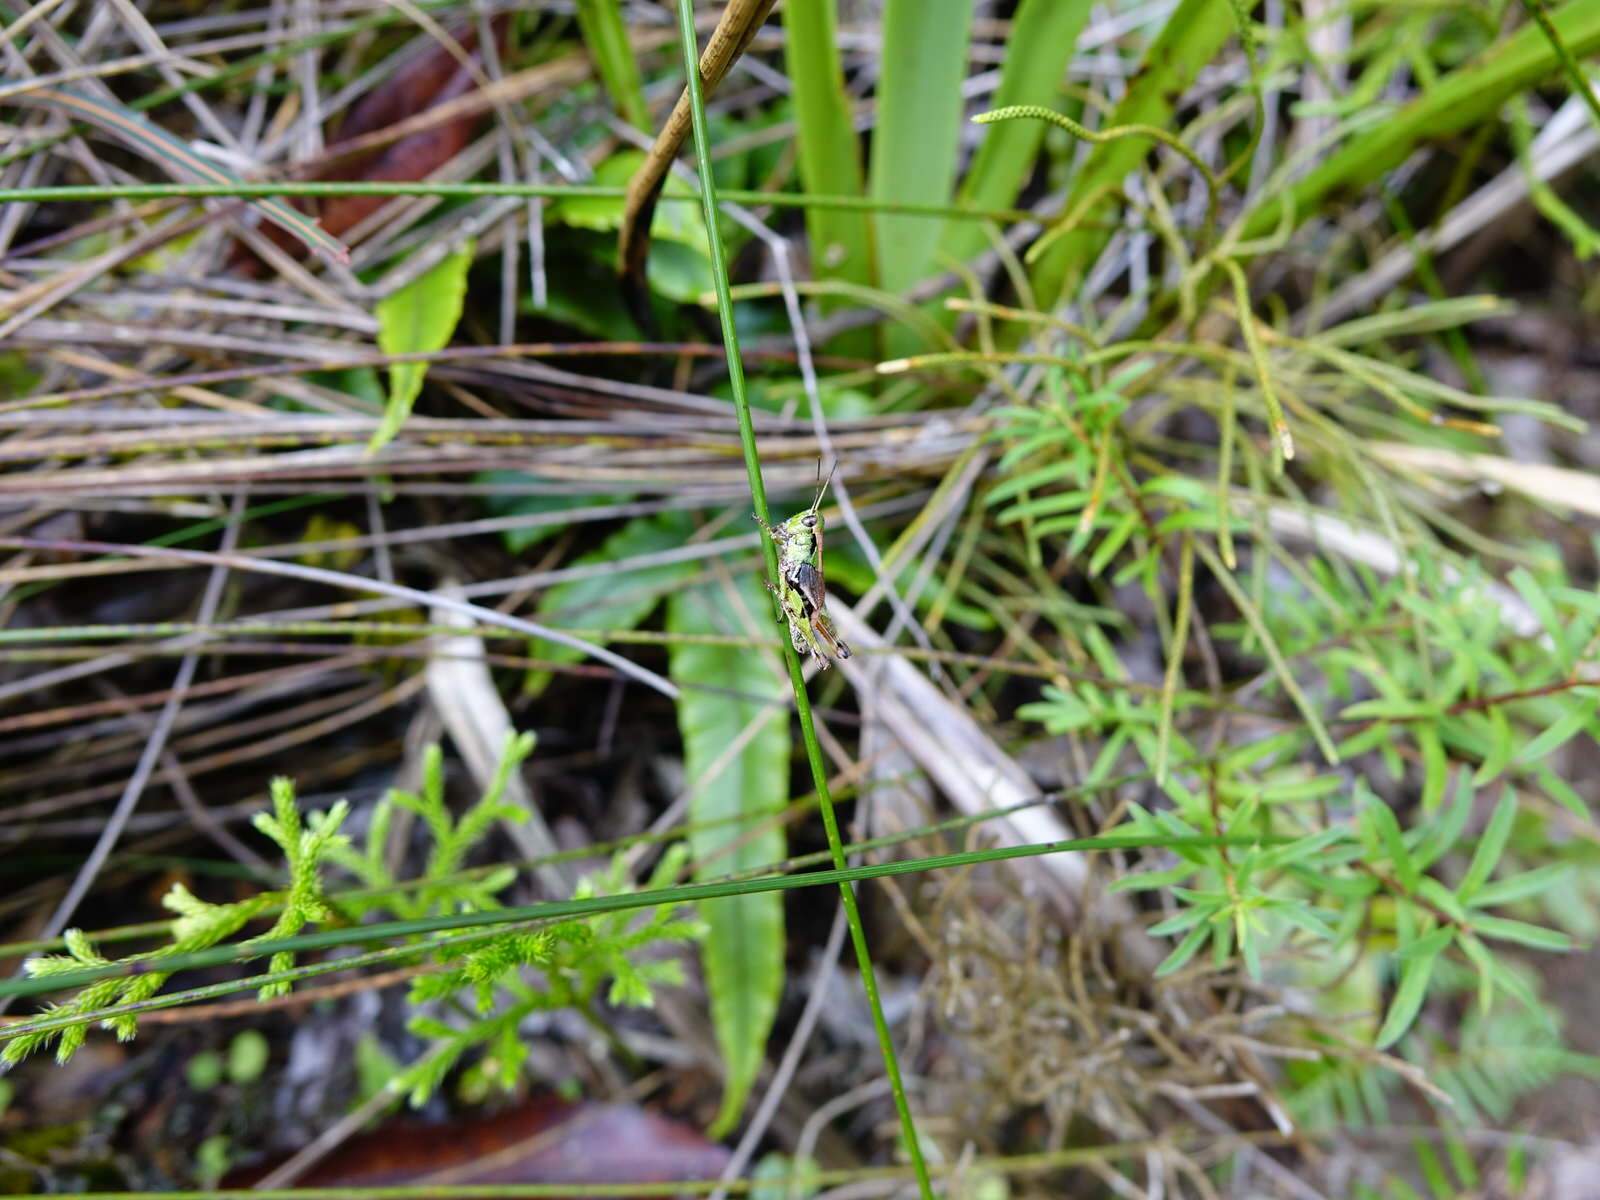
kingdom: Animalia
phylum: Arthropoda
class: Insecta
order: Orthoptera
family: Acrididae
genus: Phaulacridium
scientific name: Phaulacridium marginale
